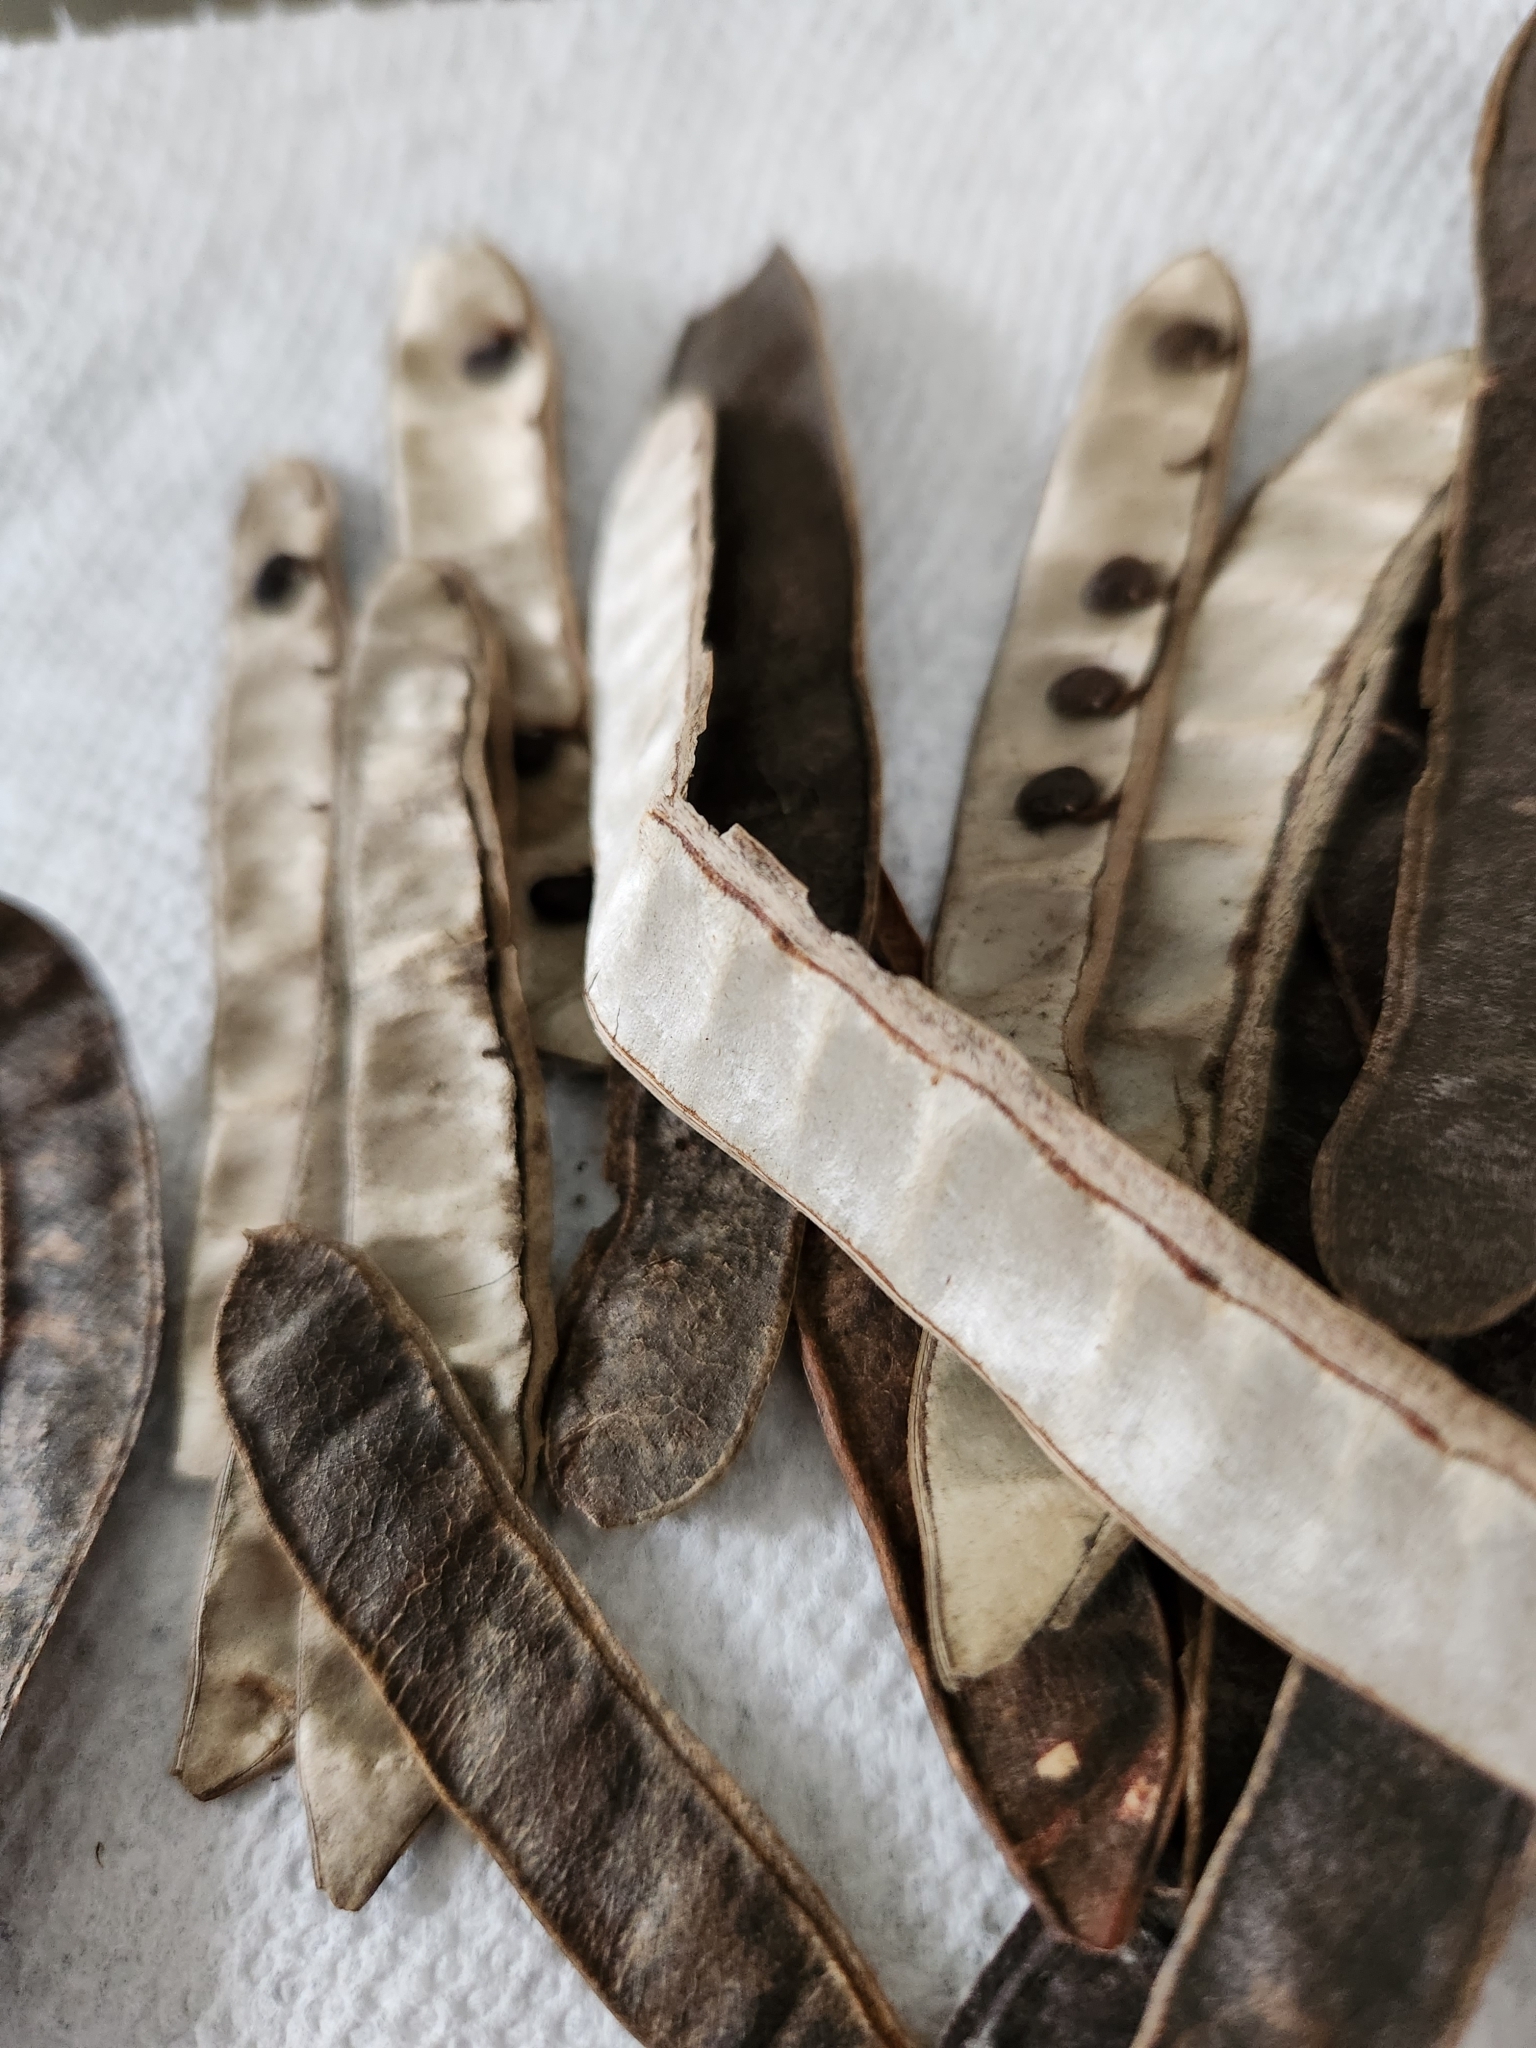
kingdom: Plantae
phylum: Tracheophyta
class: Magnoliopsida
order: Fabales
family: Fabaceae
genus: Robinia
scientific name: Robinia pseudoacacia
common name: Black locust
